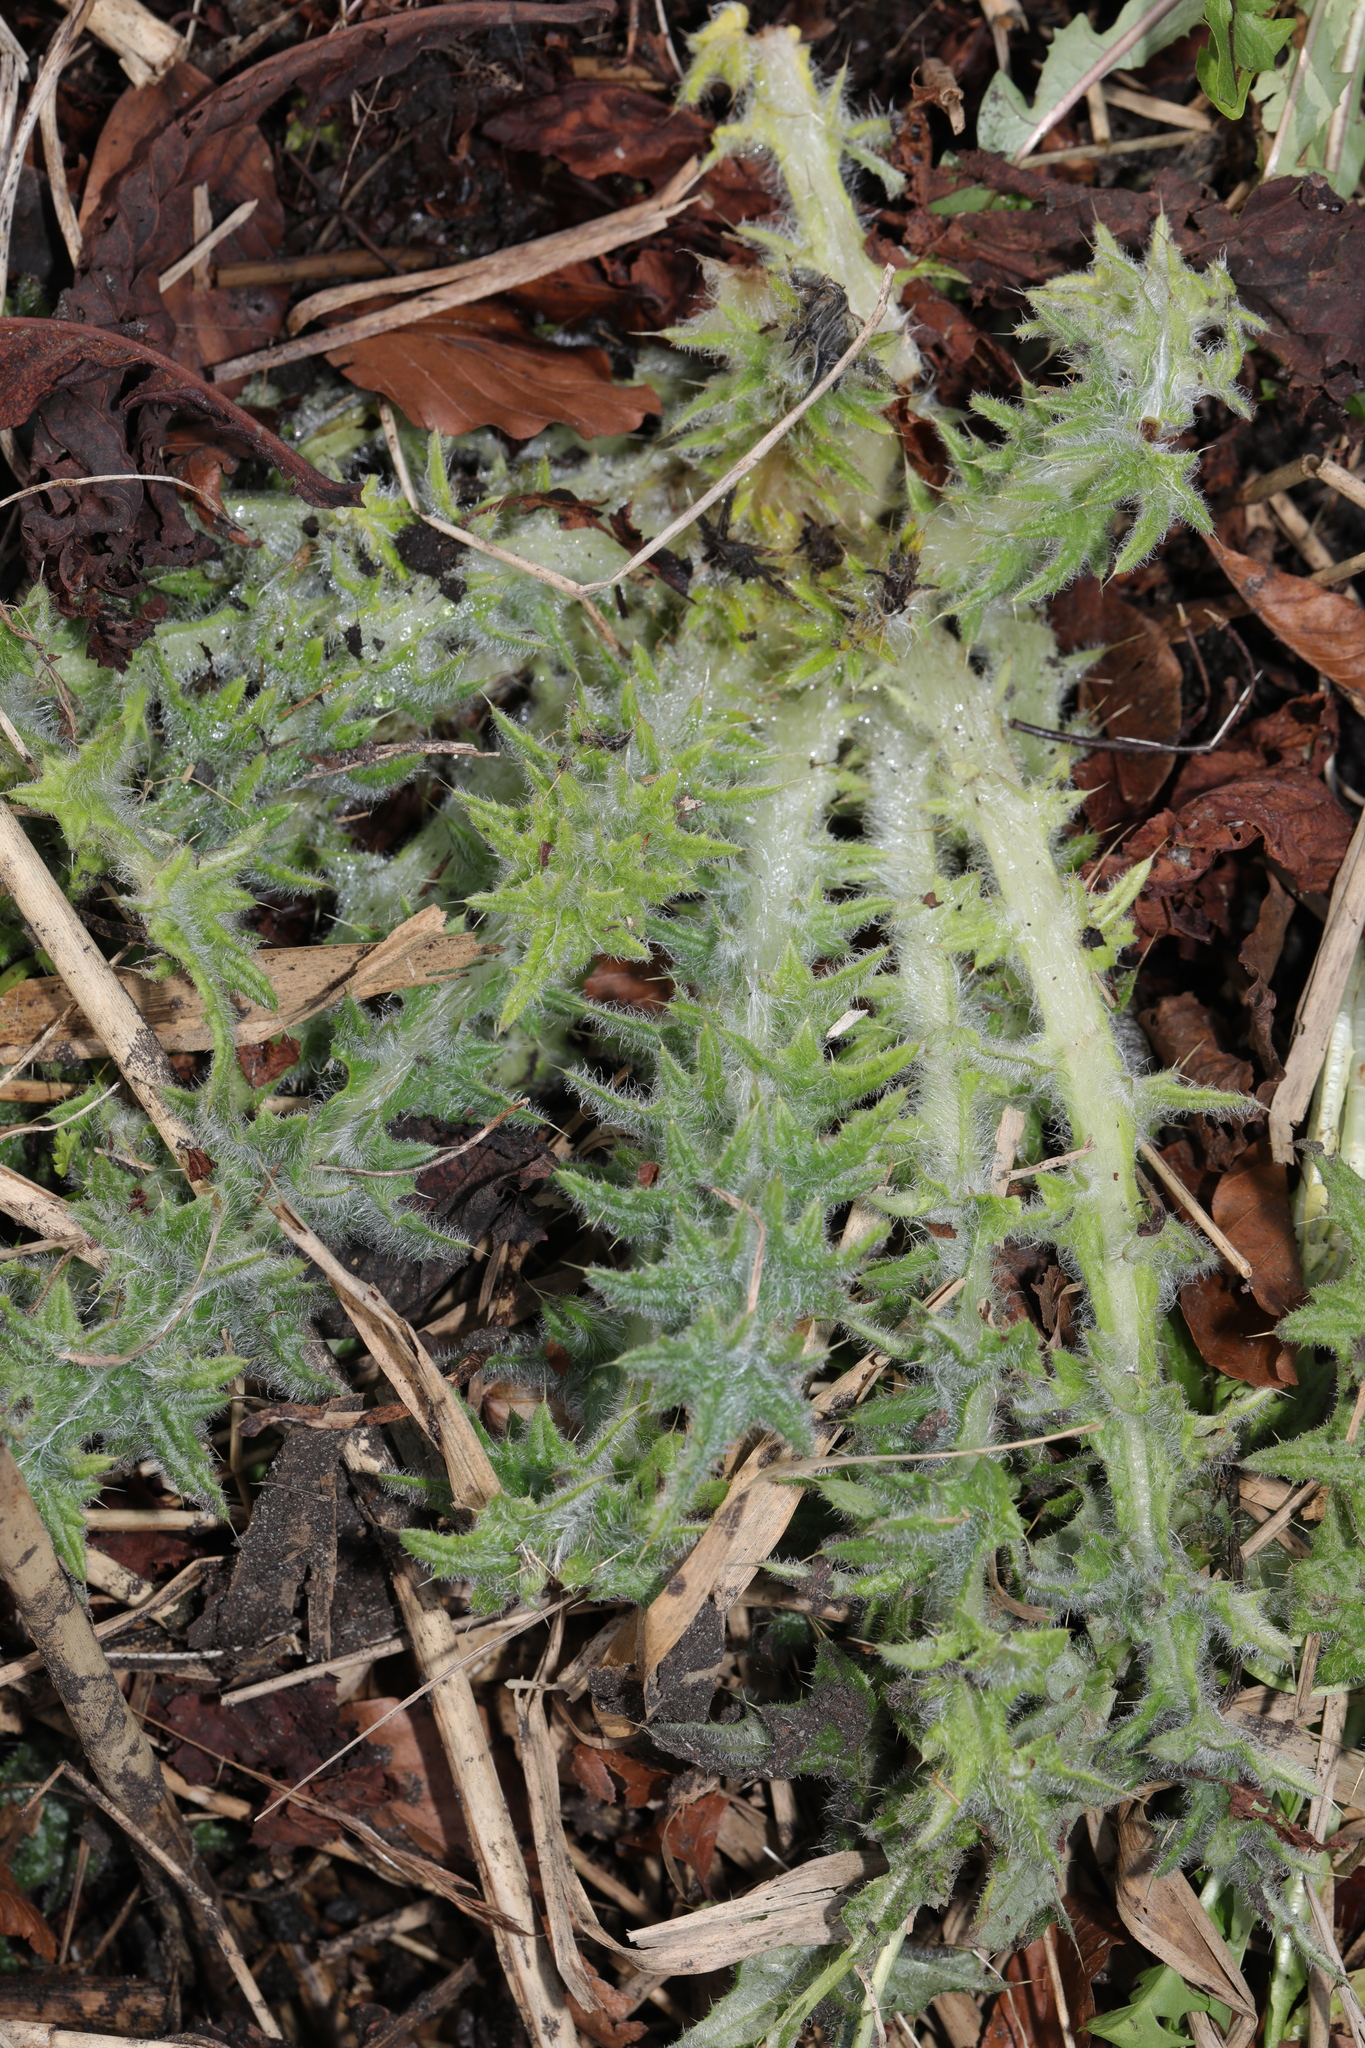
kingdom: Plantae
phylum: Tracheophyta
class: Magnoliopsida
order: Asterales
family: Asteraceae
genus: Cirsium
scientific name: Cirsium vulgare
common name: Bull thistle
